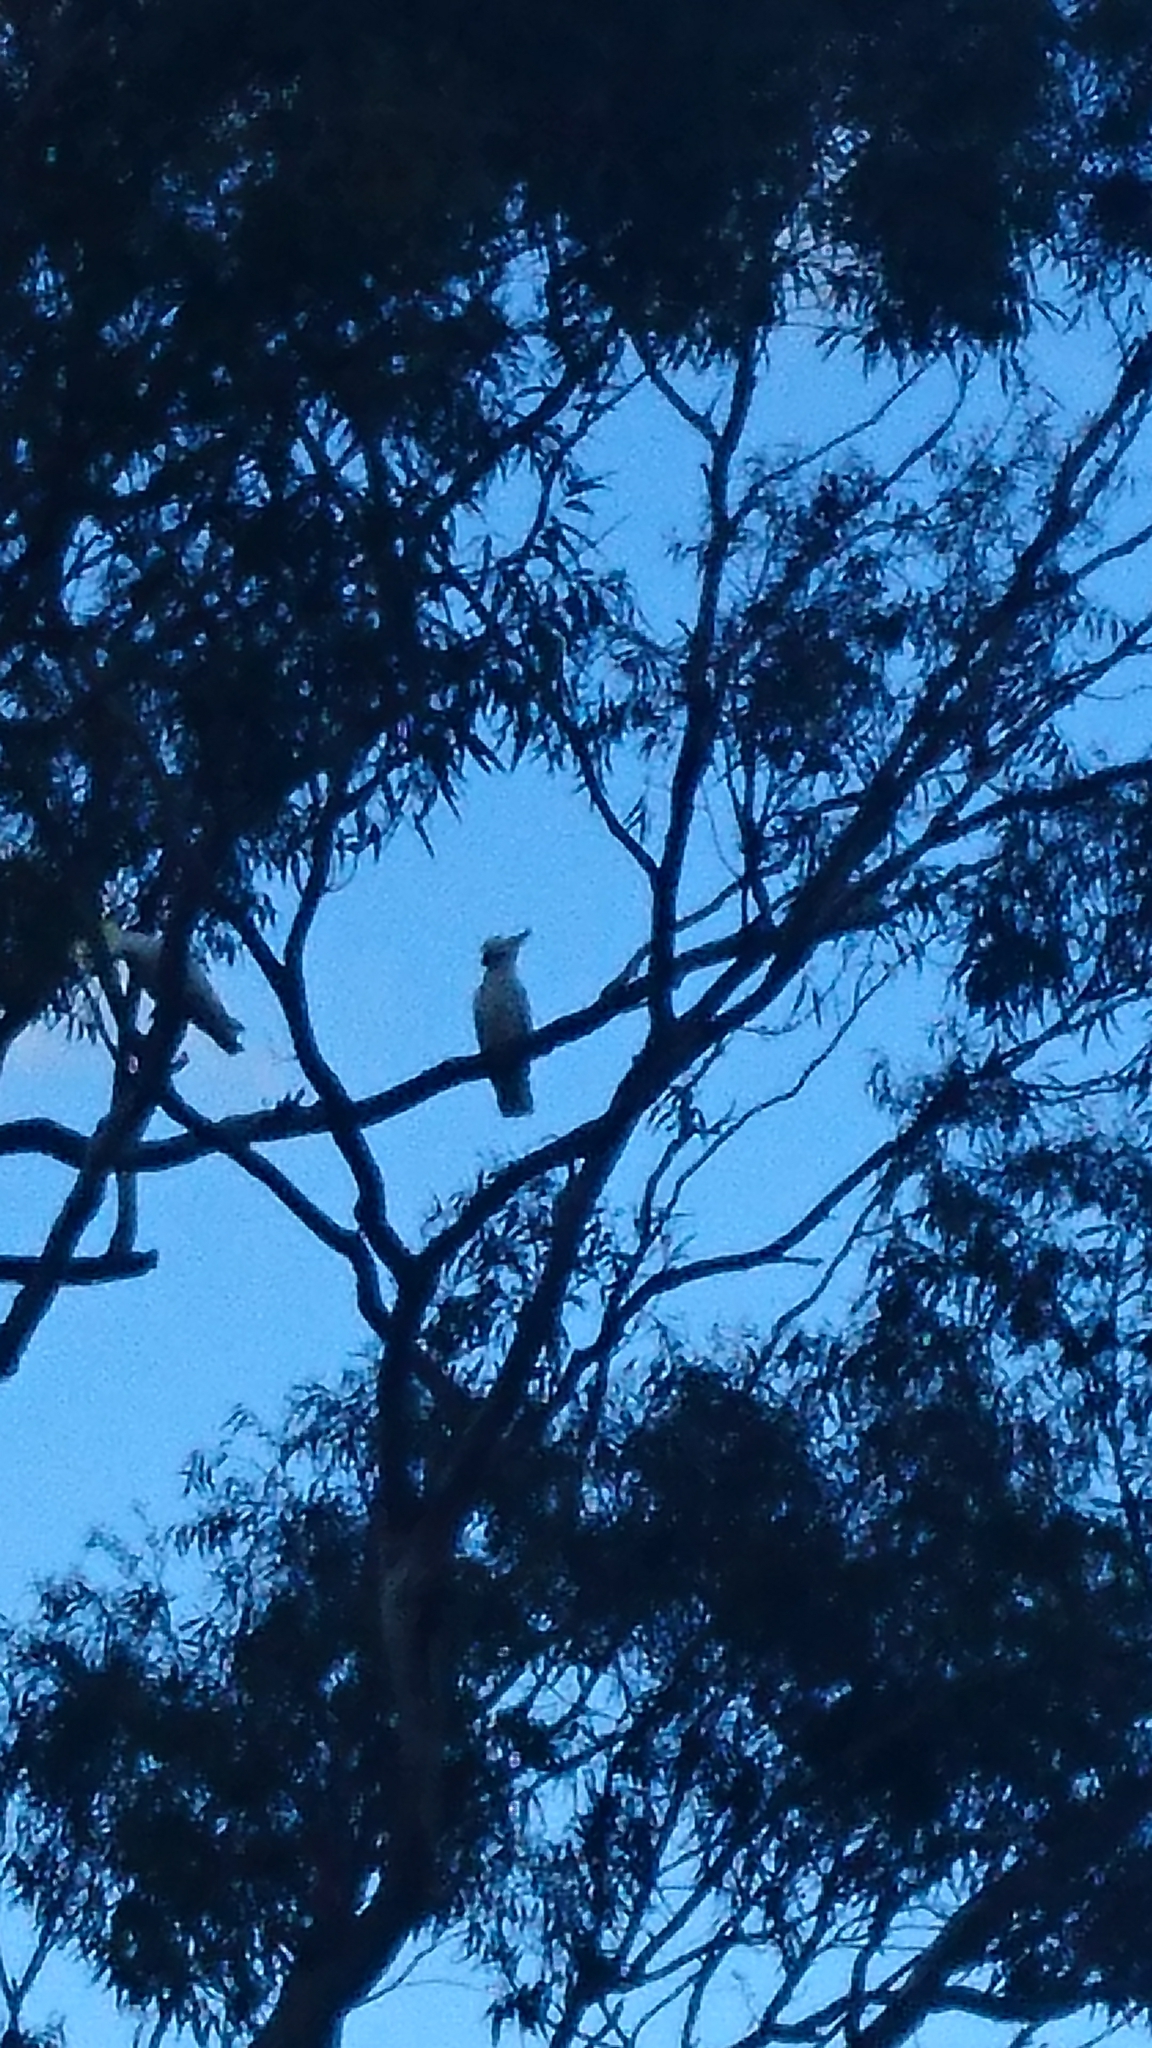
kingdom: Animalia
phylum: Chordata
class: Aves
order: Psittaciformes
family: Psittacidae
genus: Cacatua
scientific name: Cacatua galerita
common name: Sulphur-crested cockatoo
